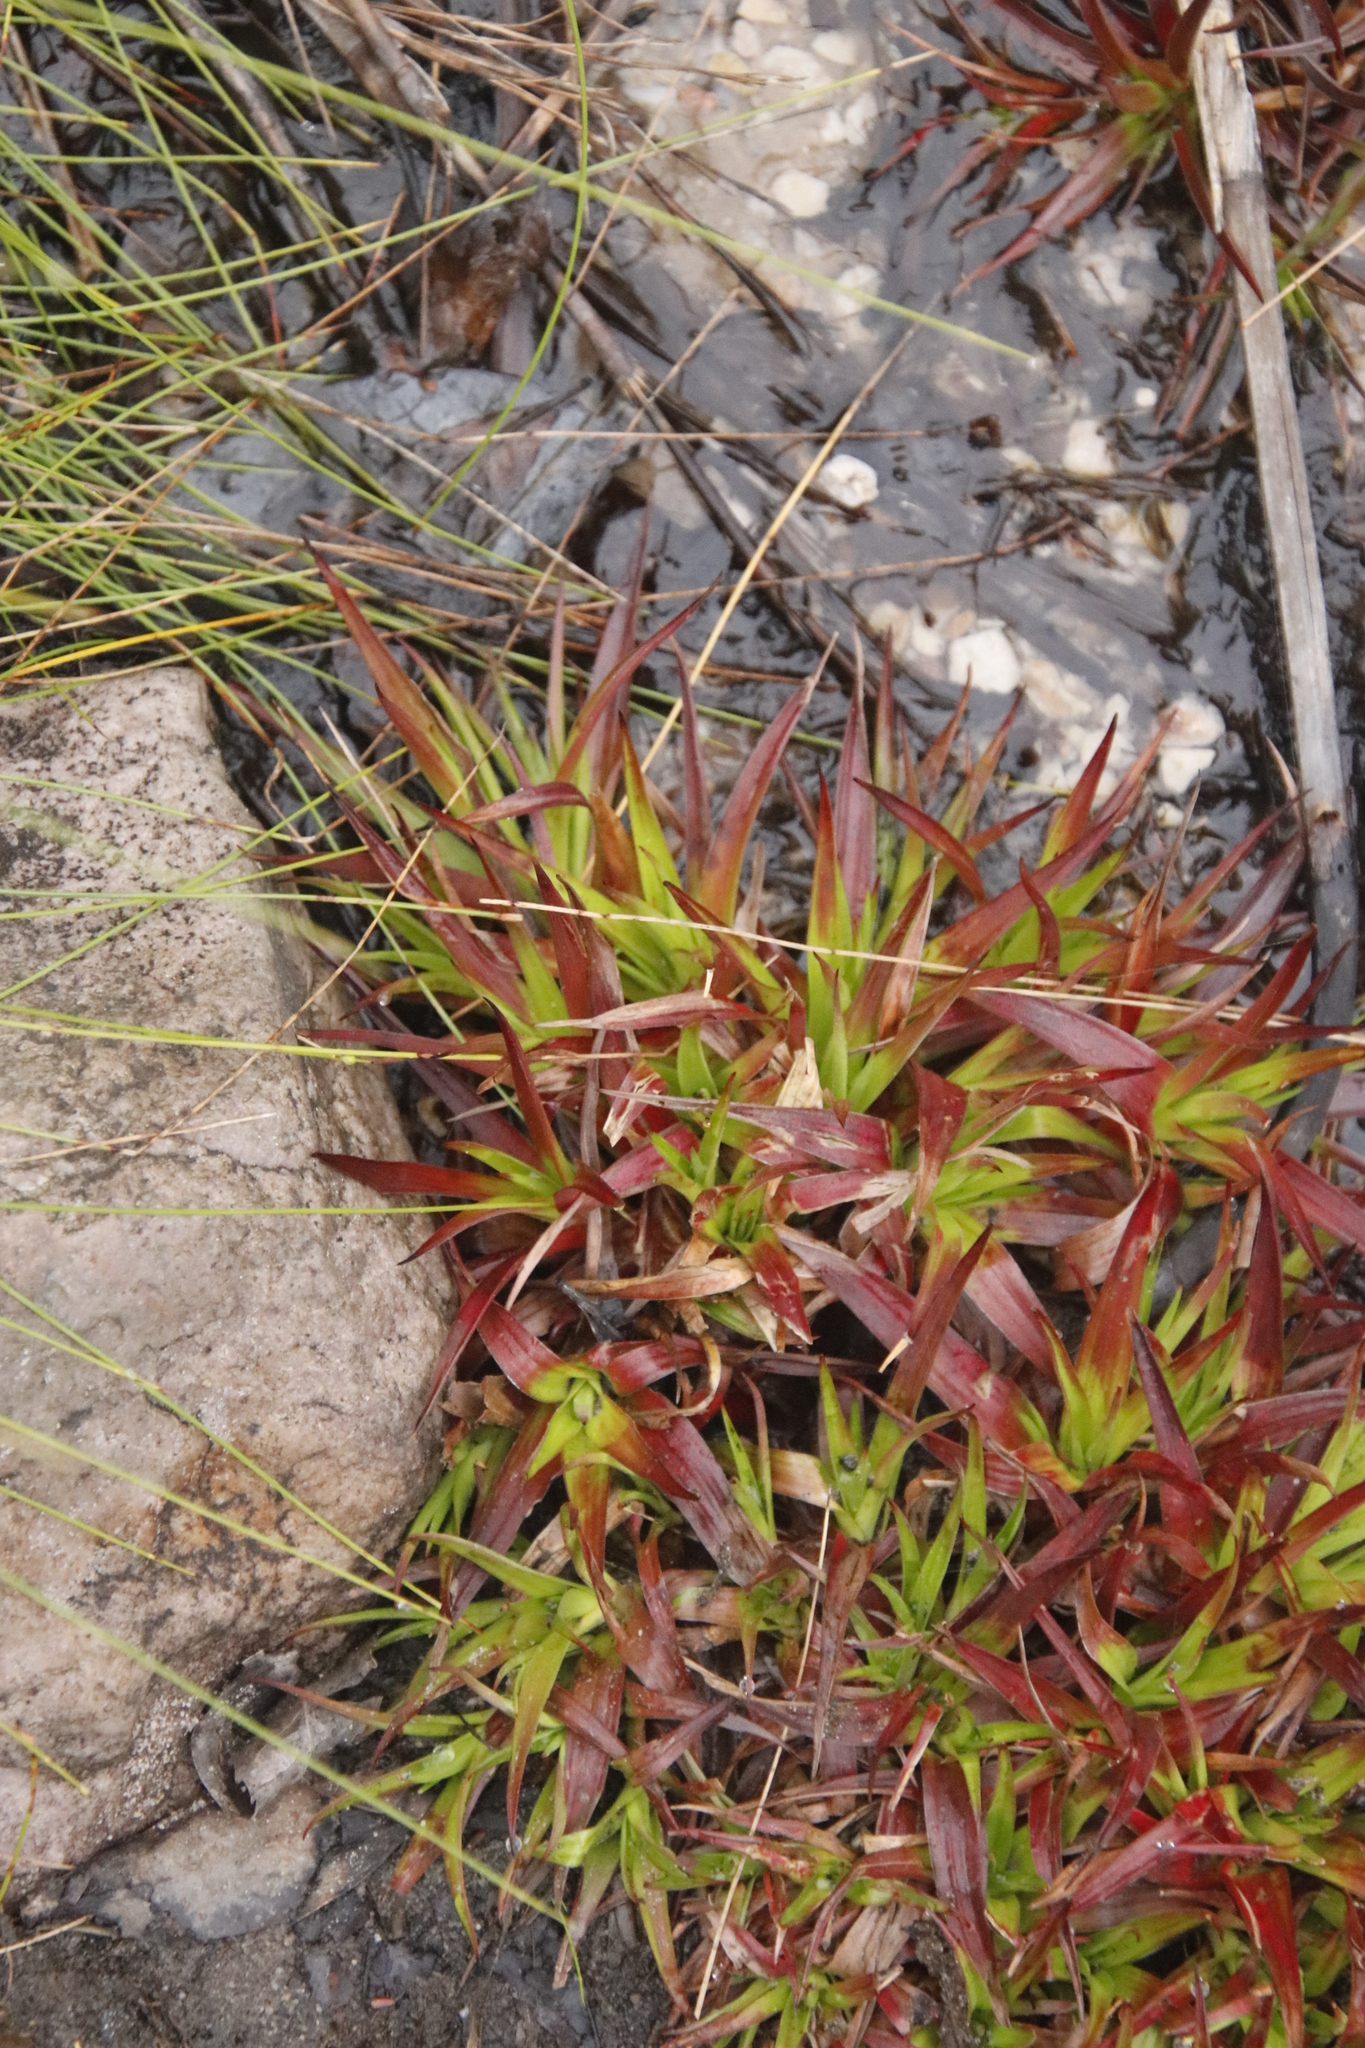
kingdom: Plantae
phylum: Tracheophyta
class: Liliopsida
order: Poales
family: Juncaceae
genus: Juncus
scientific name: Juncus lomatophyllus
